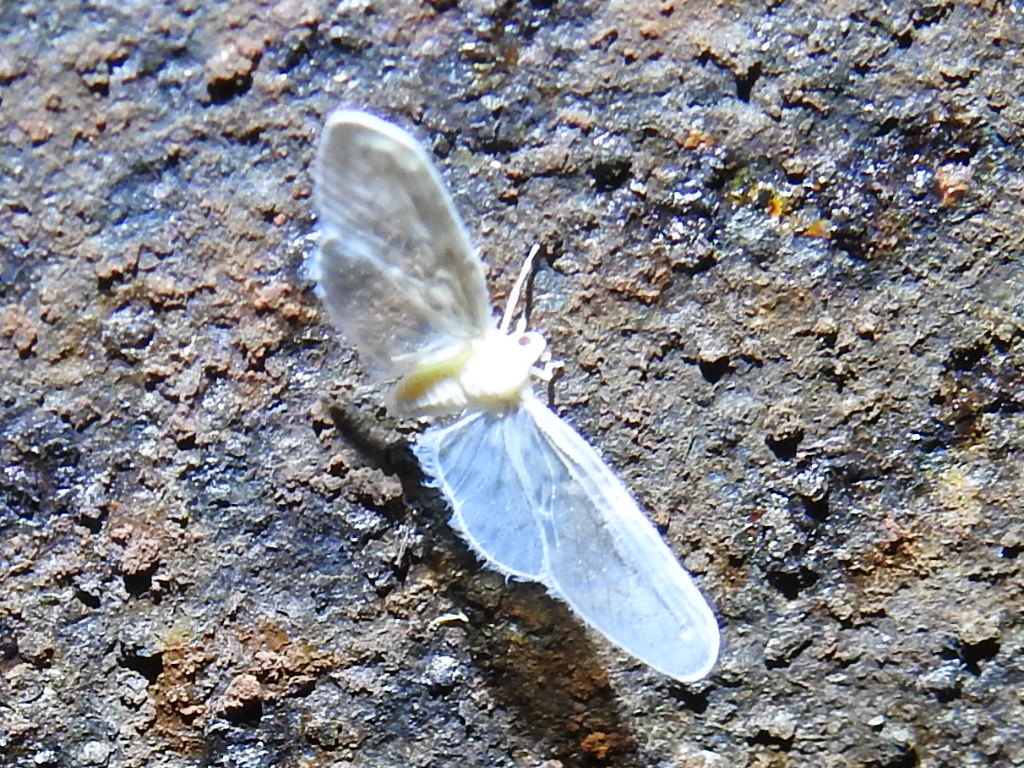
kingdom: Animalia
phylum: Arthropoda
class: Insecta
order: Hemiptera
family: Derbidae
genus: Paramysidia
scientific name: Paramysidia mississippiensis
